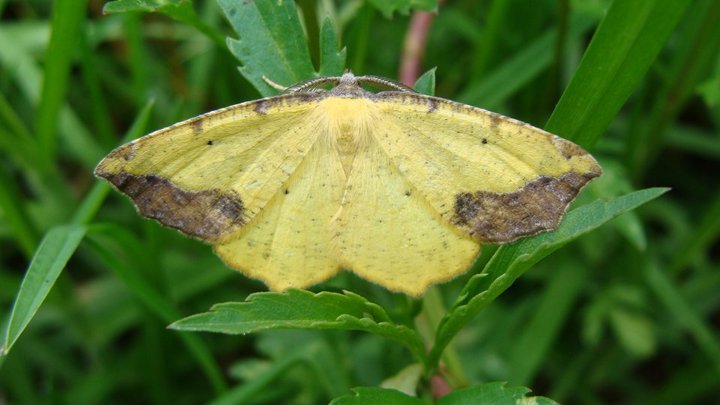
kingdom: Animalia
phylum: Arthropoda
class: Insecta
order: Lepidoptera
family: Geometridae
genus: Eusarca
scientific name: Eusarca asteria
